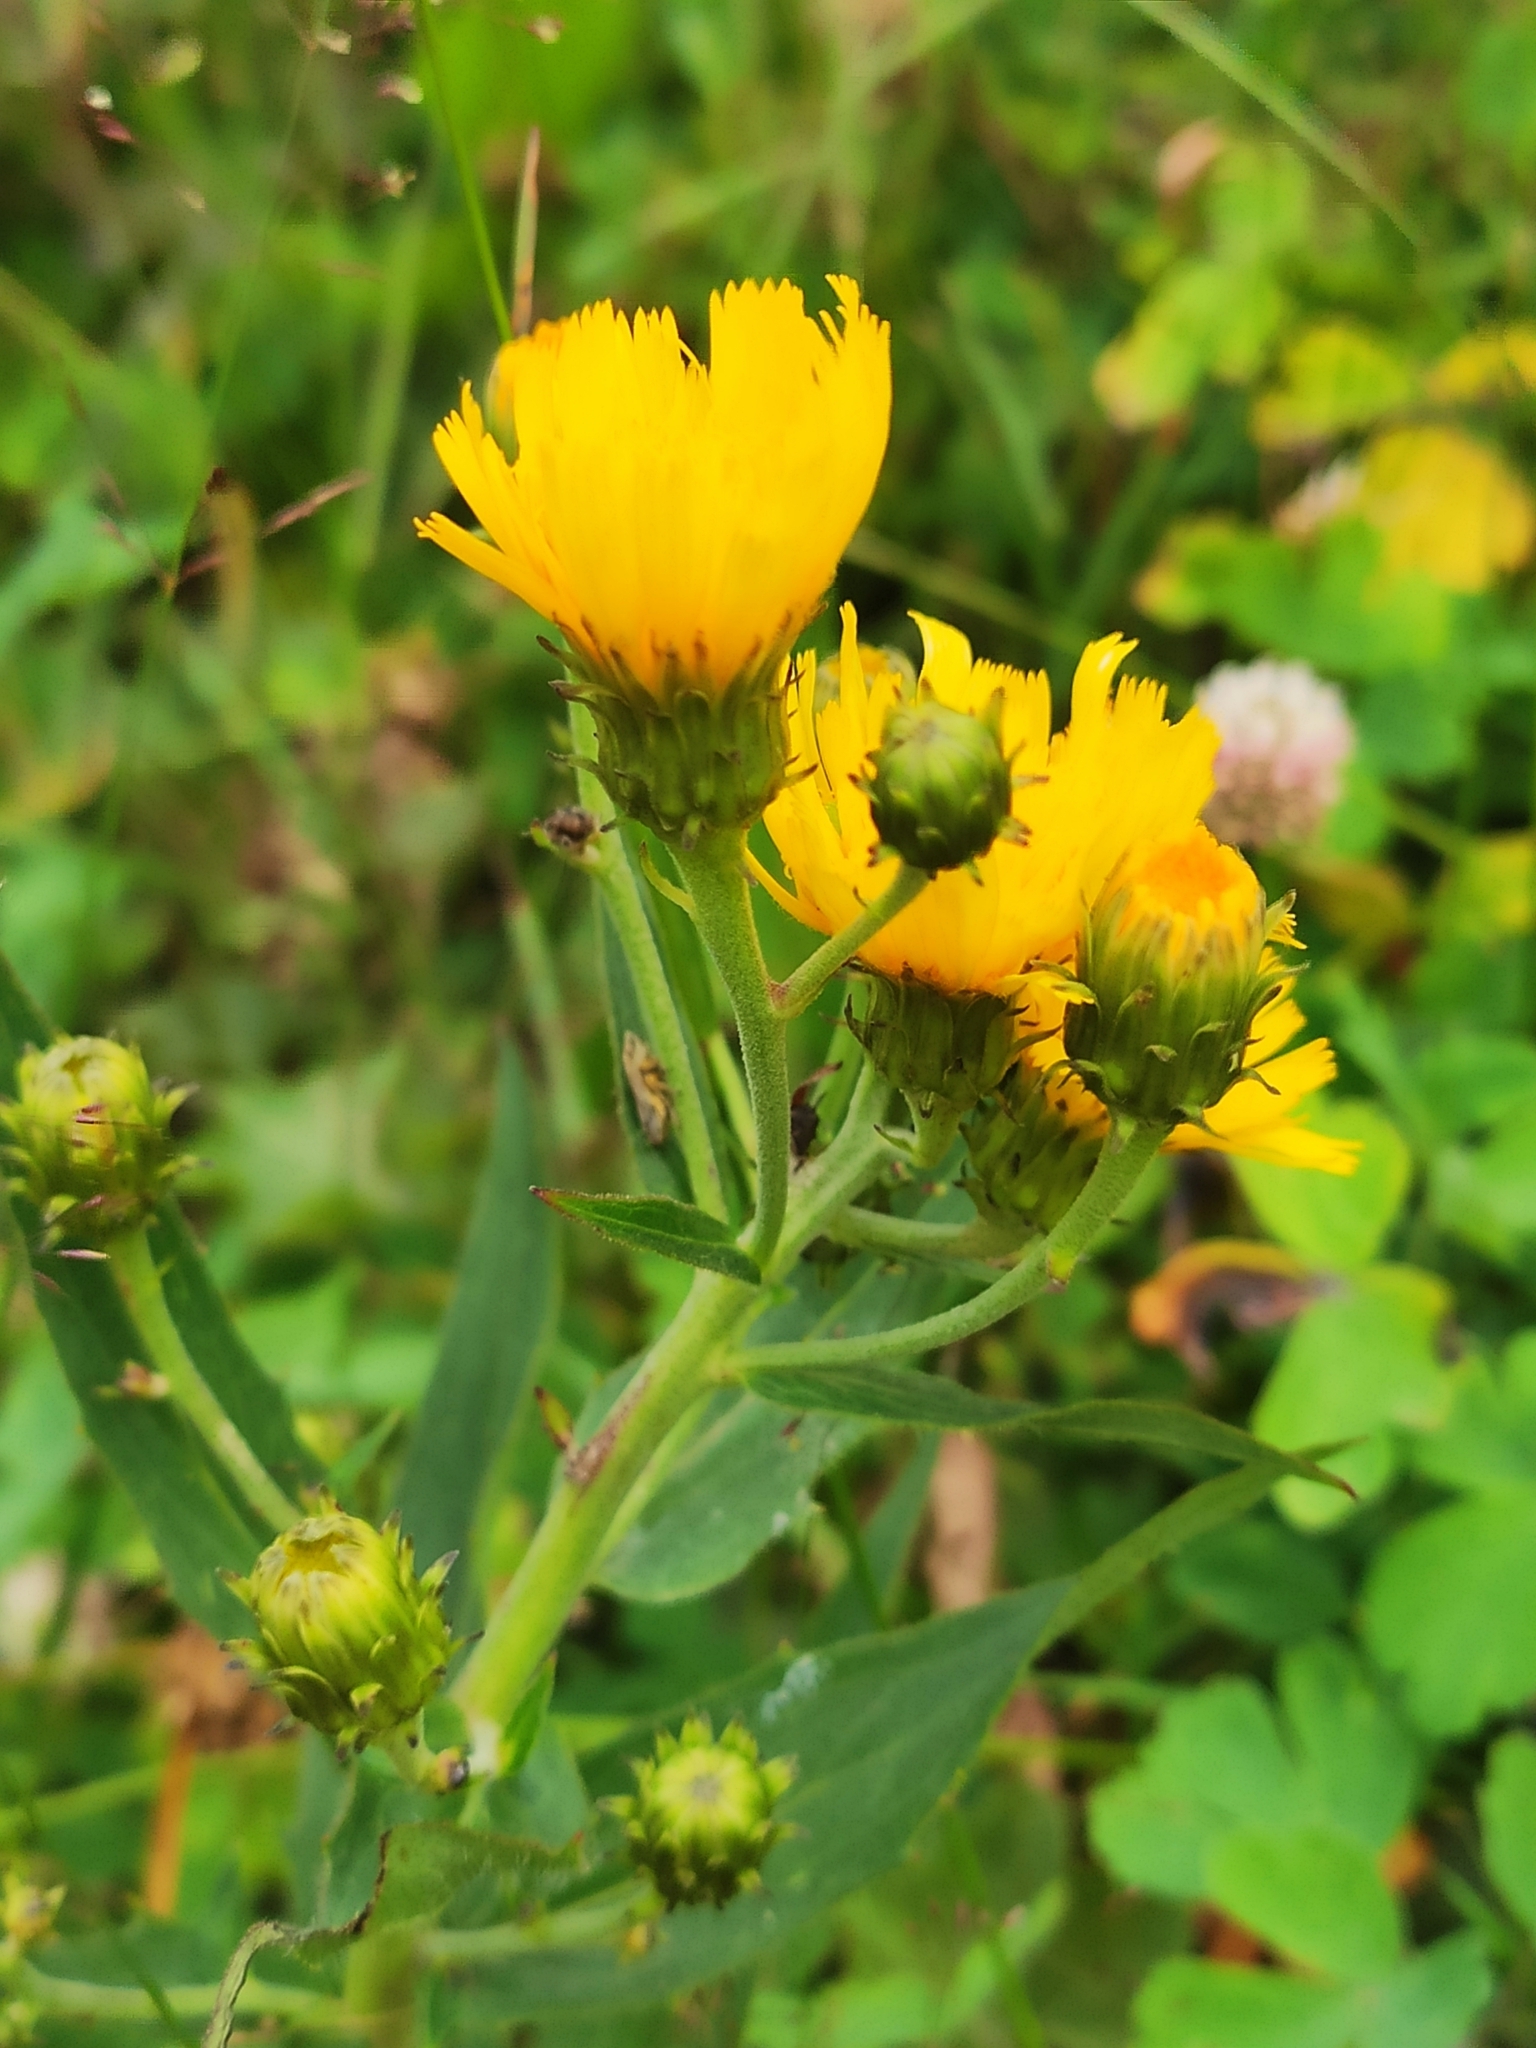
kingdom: Plantae
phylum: Tracheophyta
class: Magnoliopsida
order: Asterales
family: Asteraceae
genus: Hieracium
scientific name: Hieracium umbellatum
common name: Northern hawkweed
